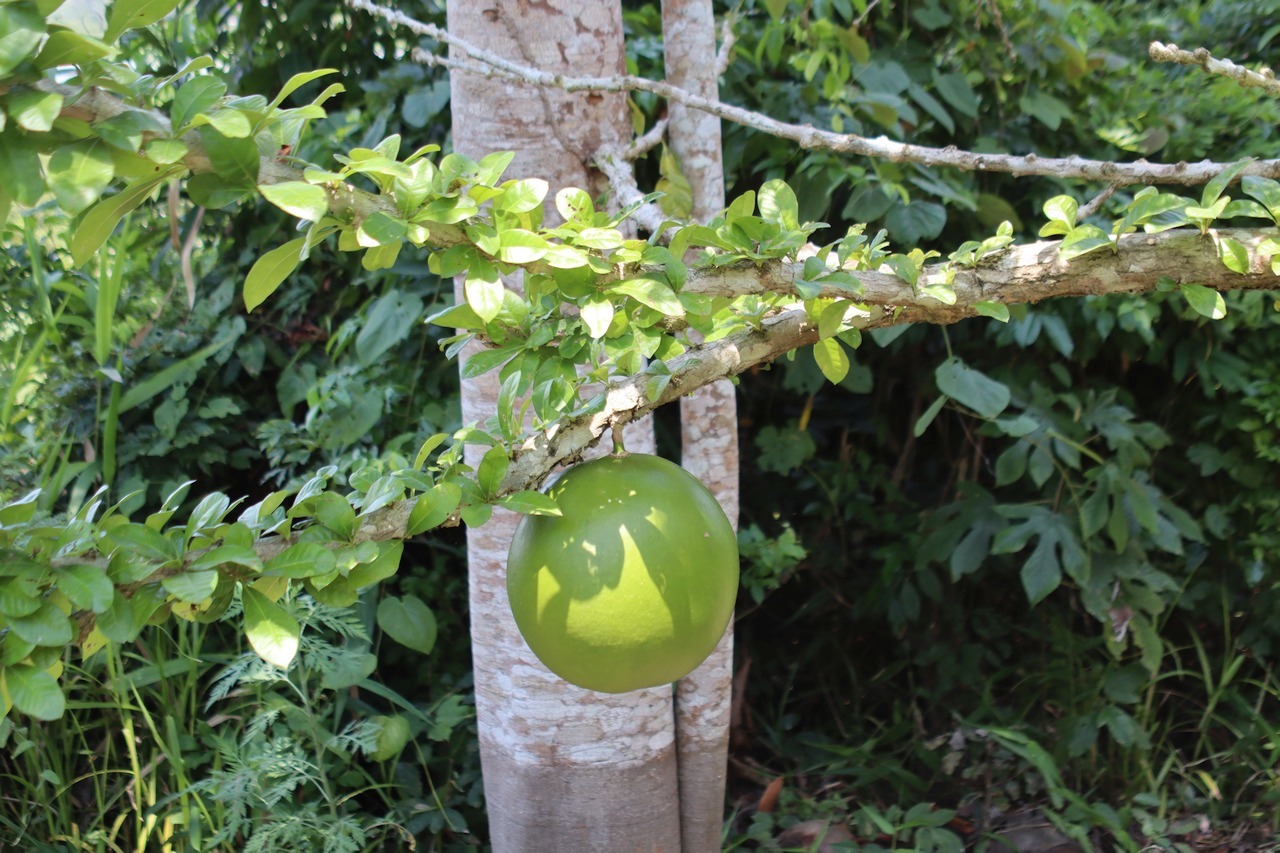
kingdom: Plantae
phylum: Tracheophyta
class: Magnoliopsida
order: Lamiales
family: Bignoniaceae
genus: Crescentia
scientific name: Crescentia cujete
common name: Calabash
